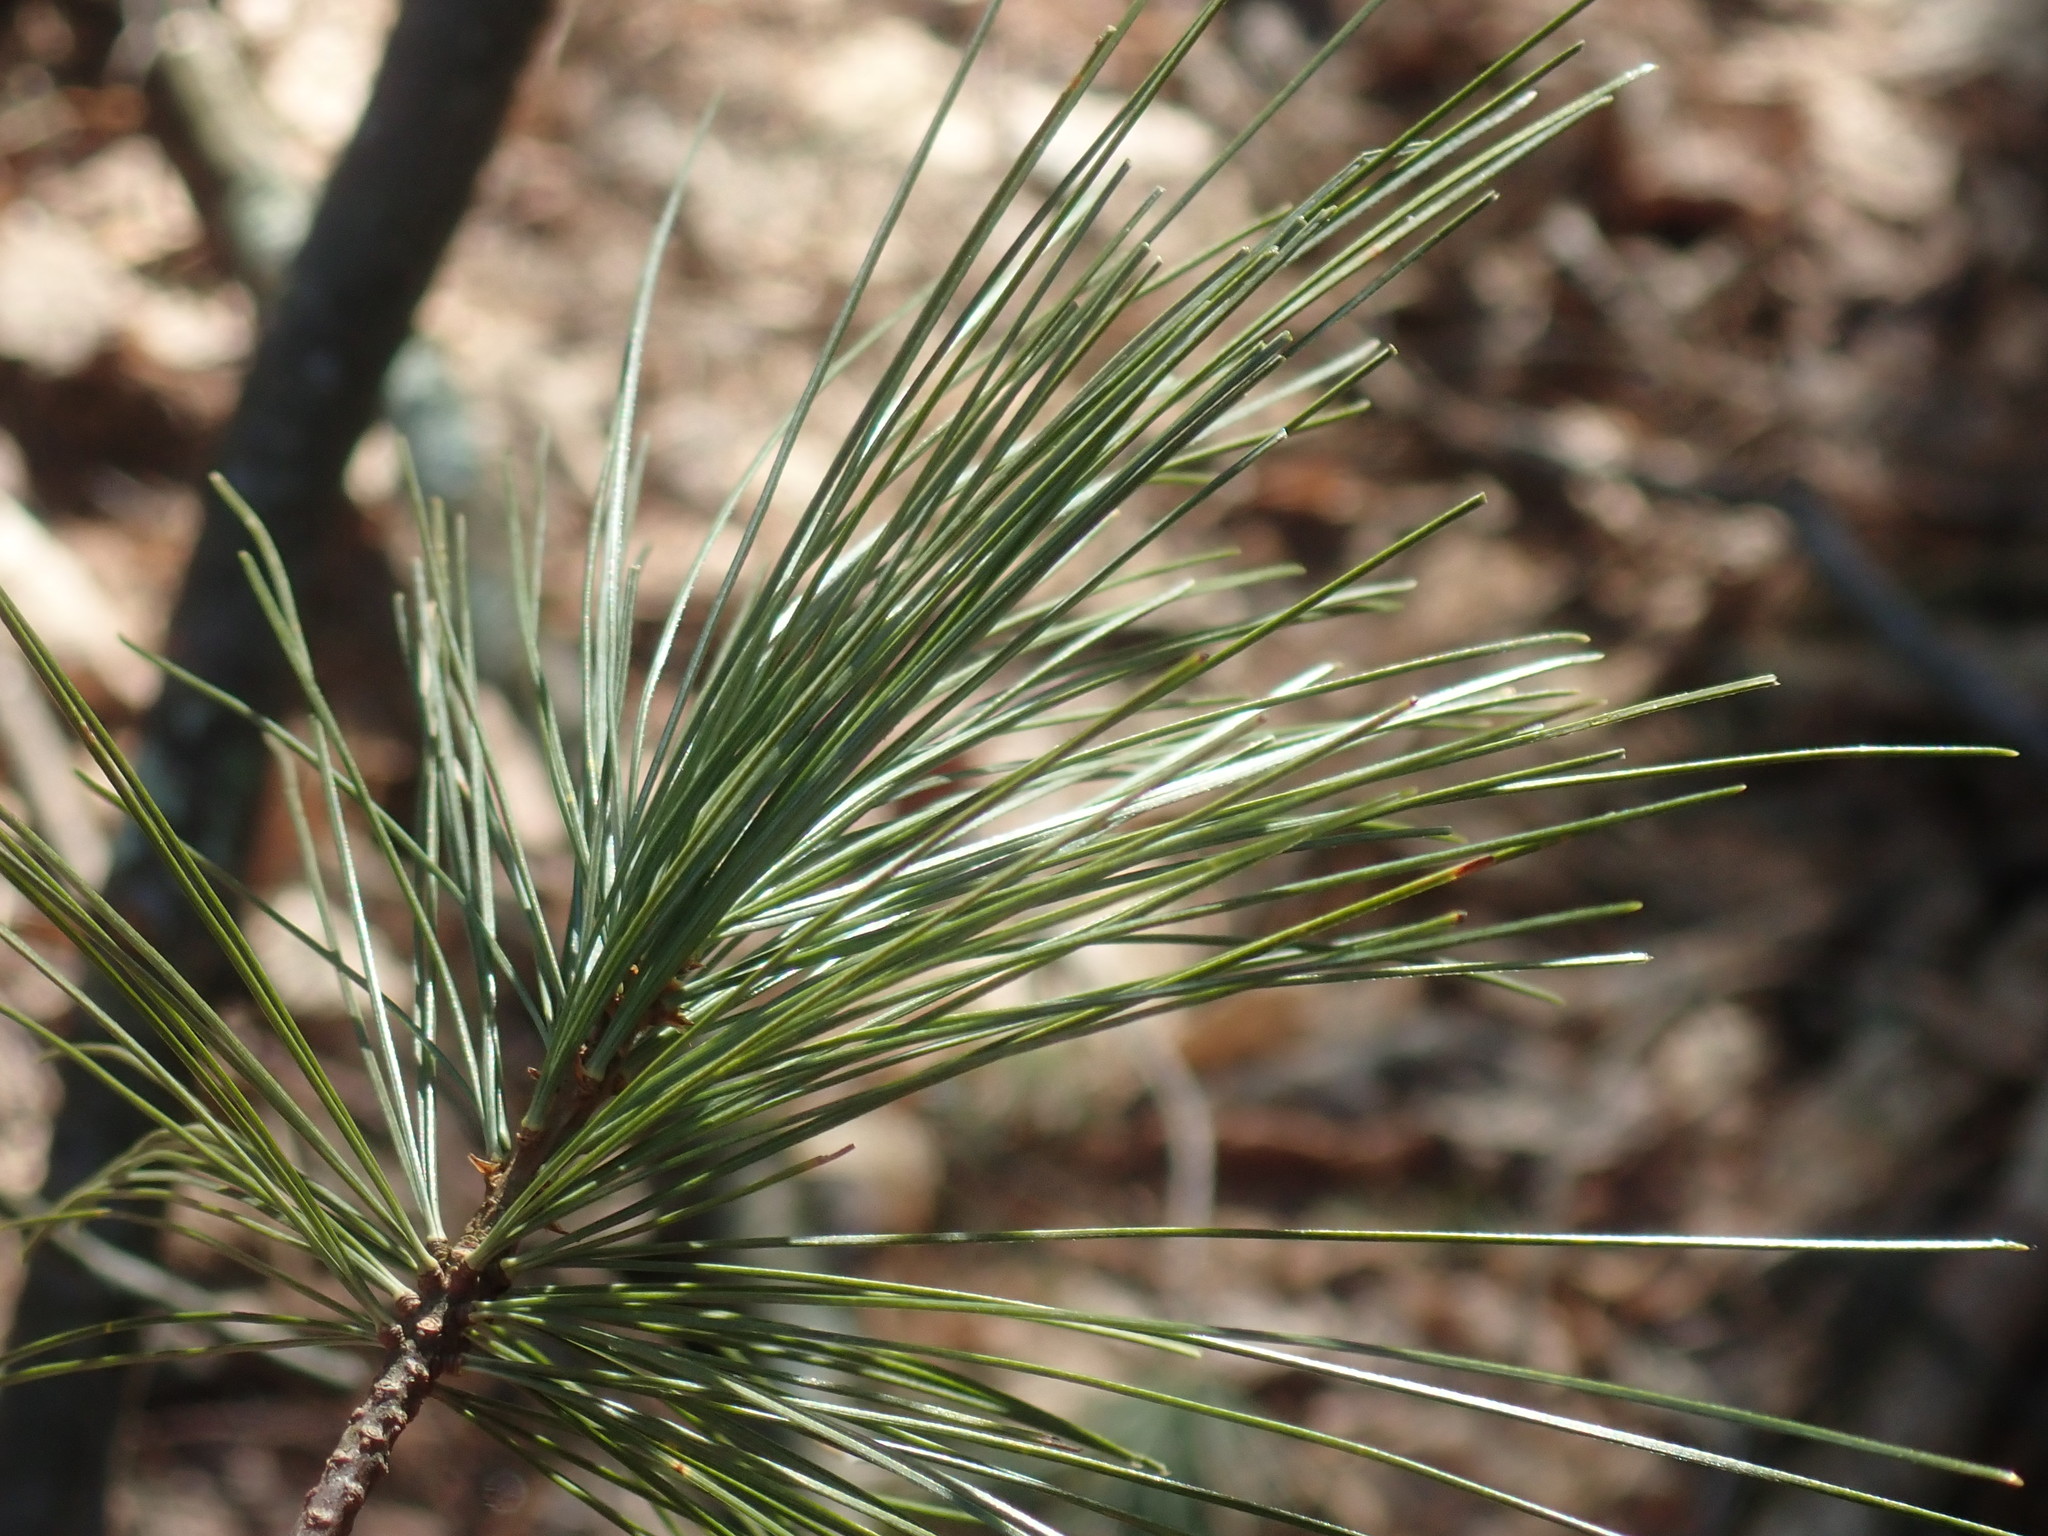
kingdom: Plantae
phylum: Tracheophyta
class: Pinopsida
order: Pinales
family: Pinaceae
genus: Pinus
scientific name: Pinus strobus
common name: Weymouth pine
